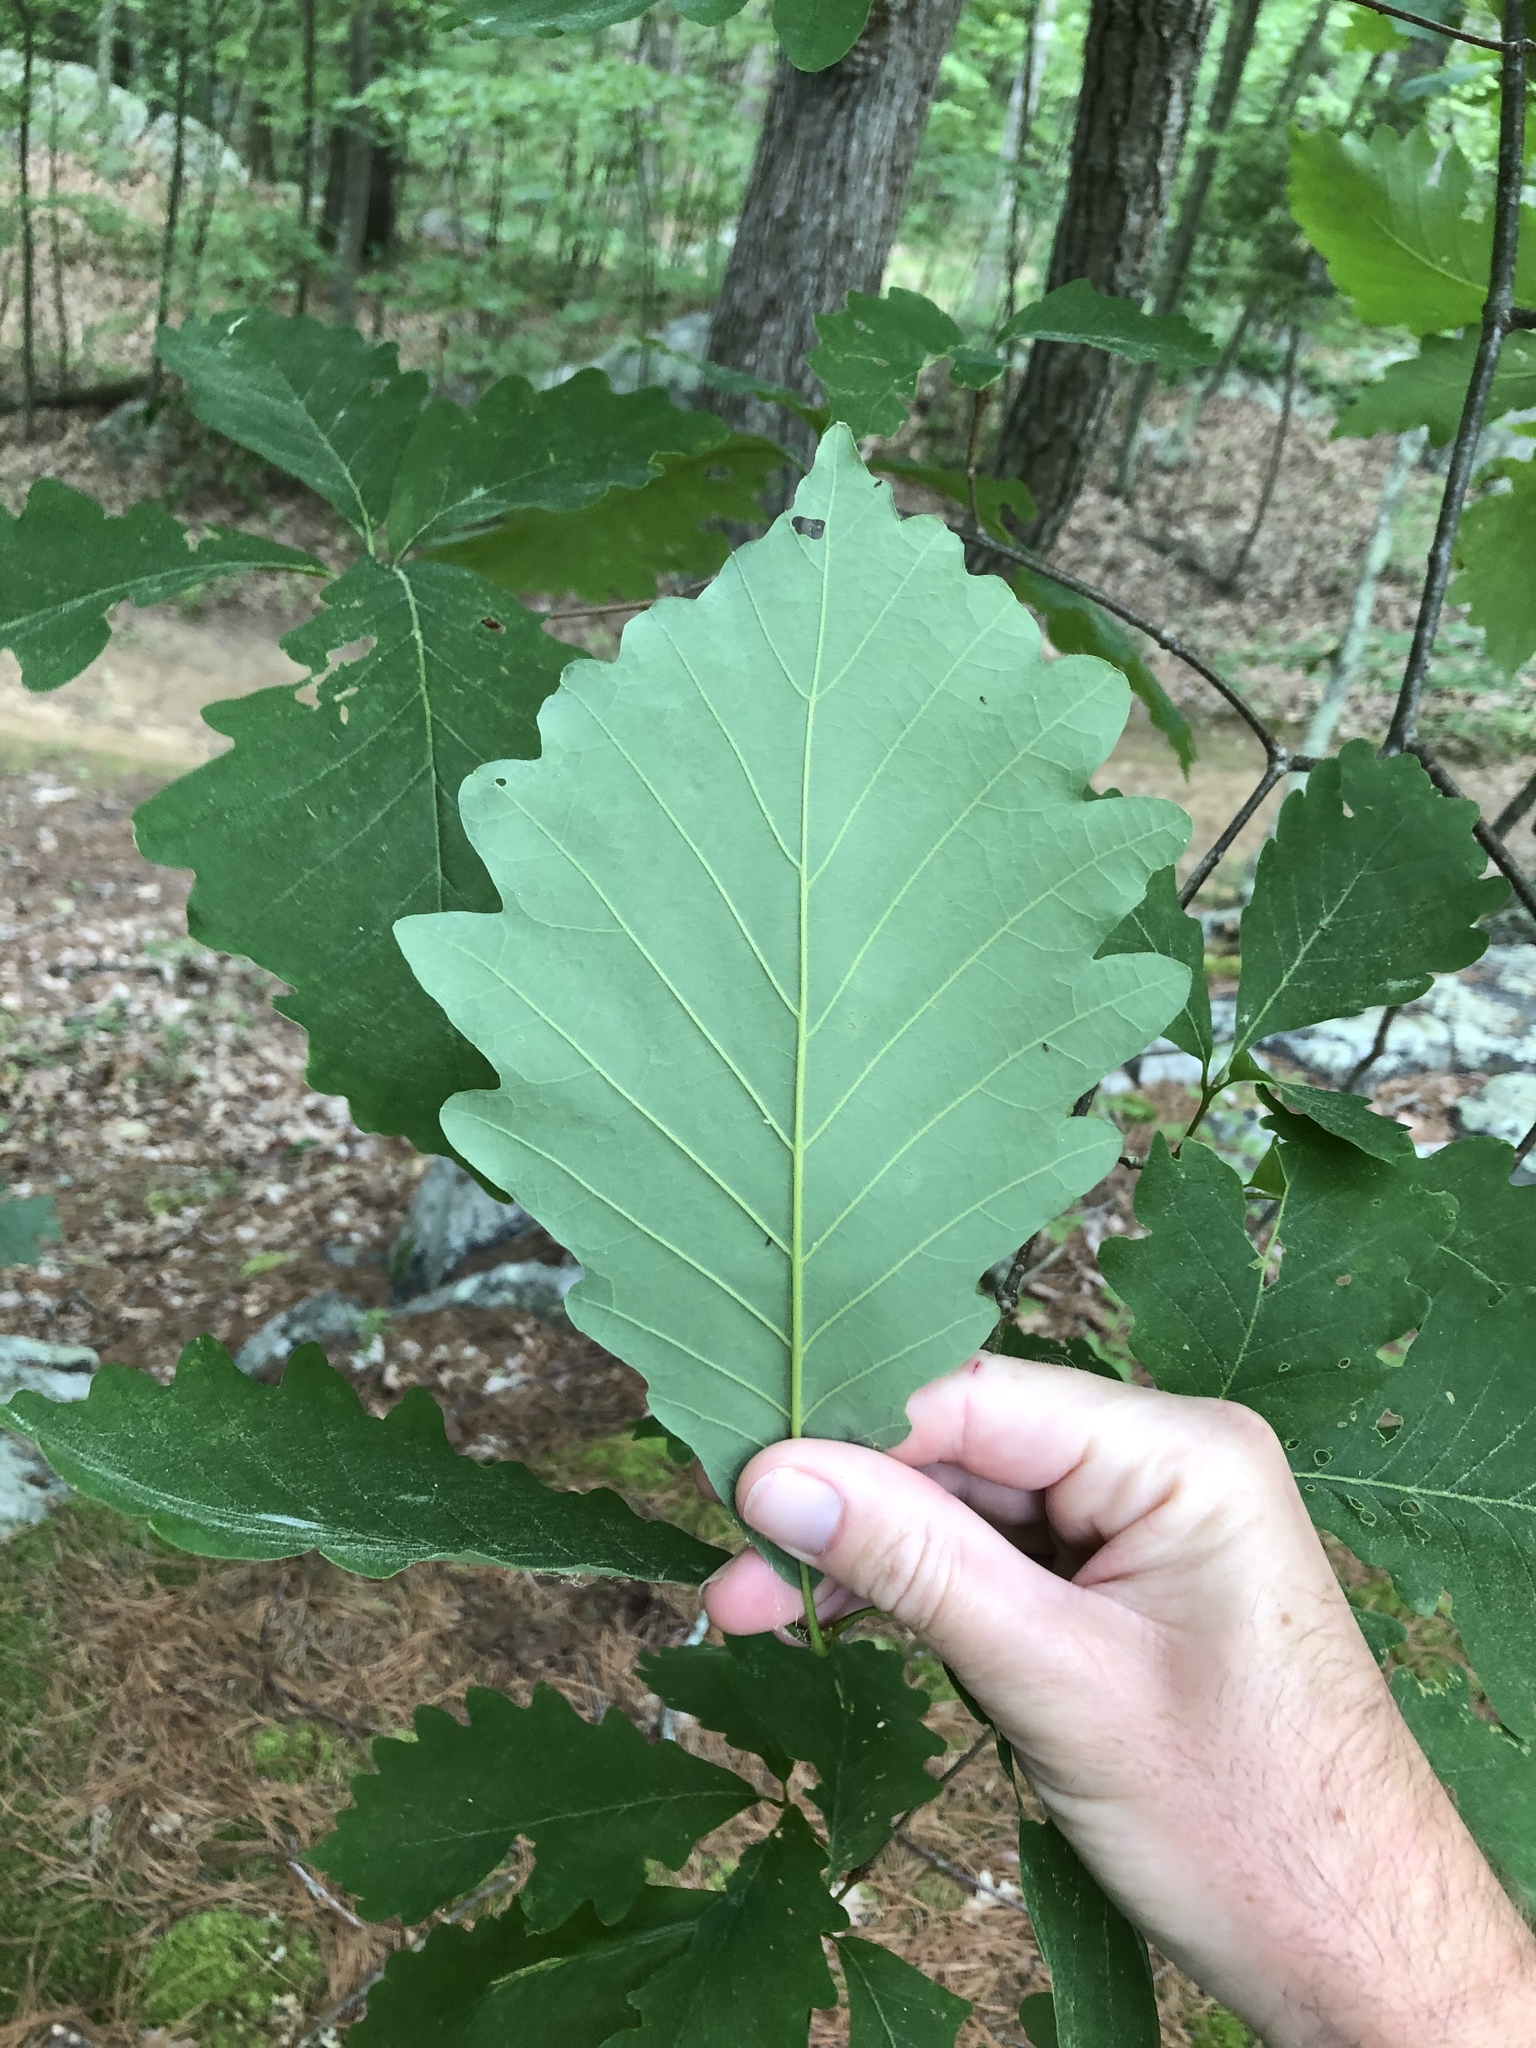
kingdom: Plantae
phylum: Tracheophyta
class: Magnoliopsida
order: Fagales
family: Fagaceae
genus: Quercus
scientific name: Quercus montana
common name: Chestnut oak
